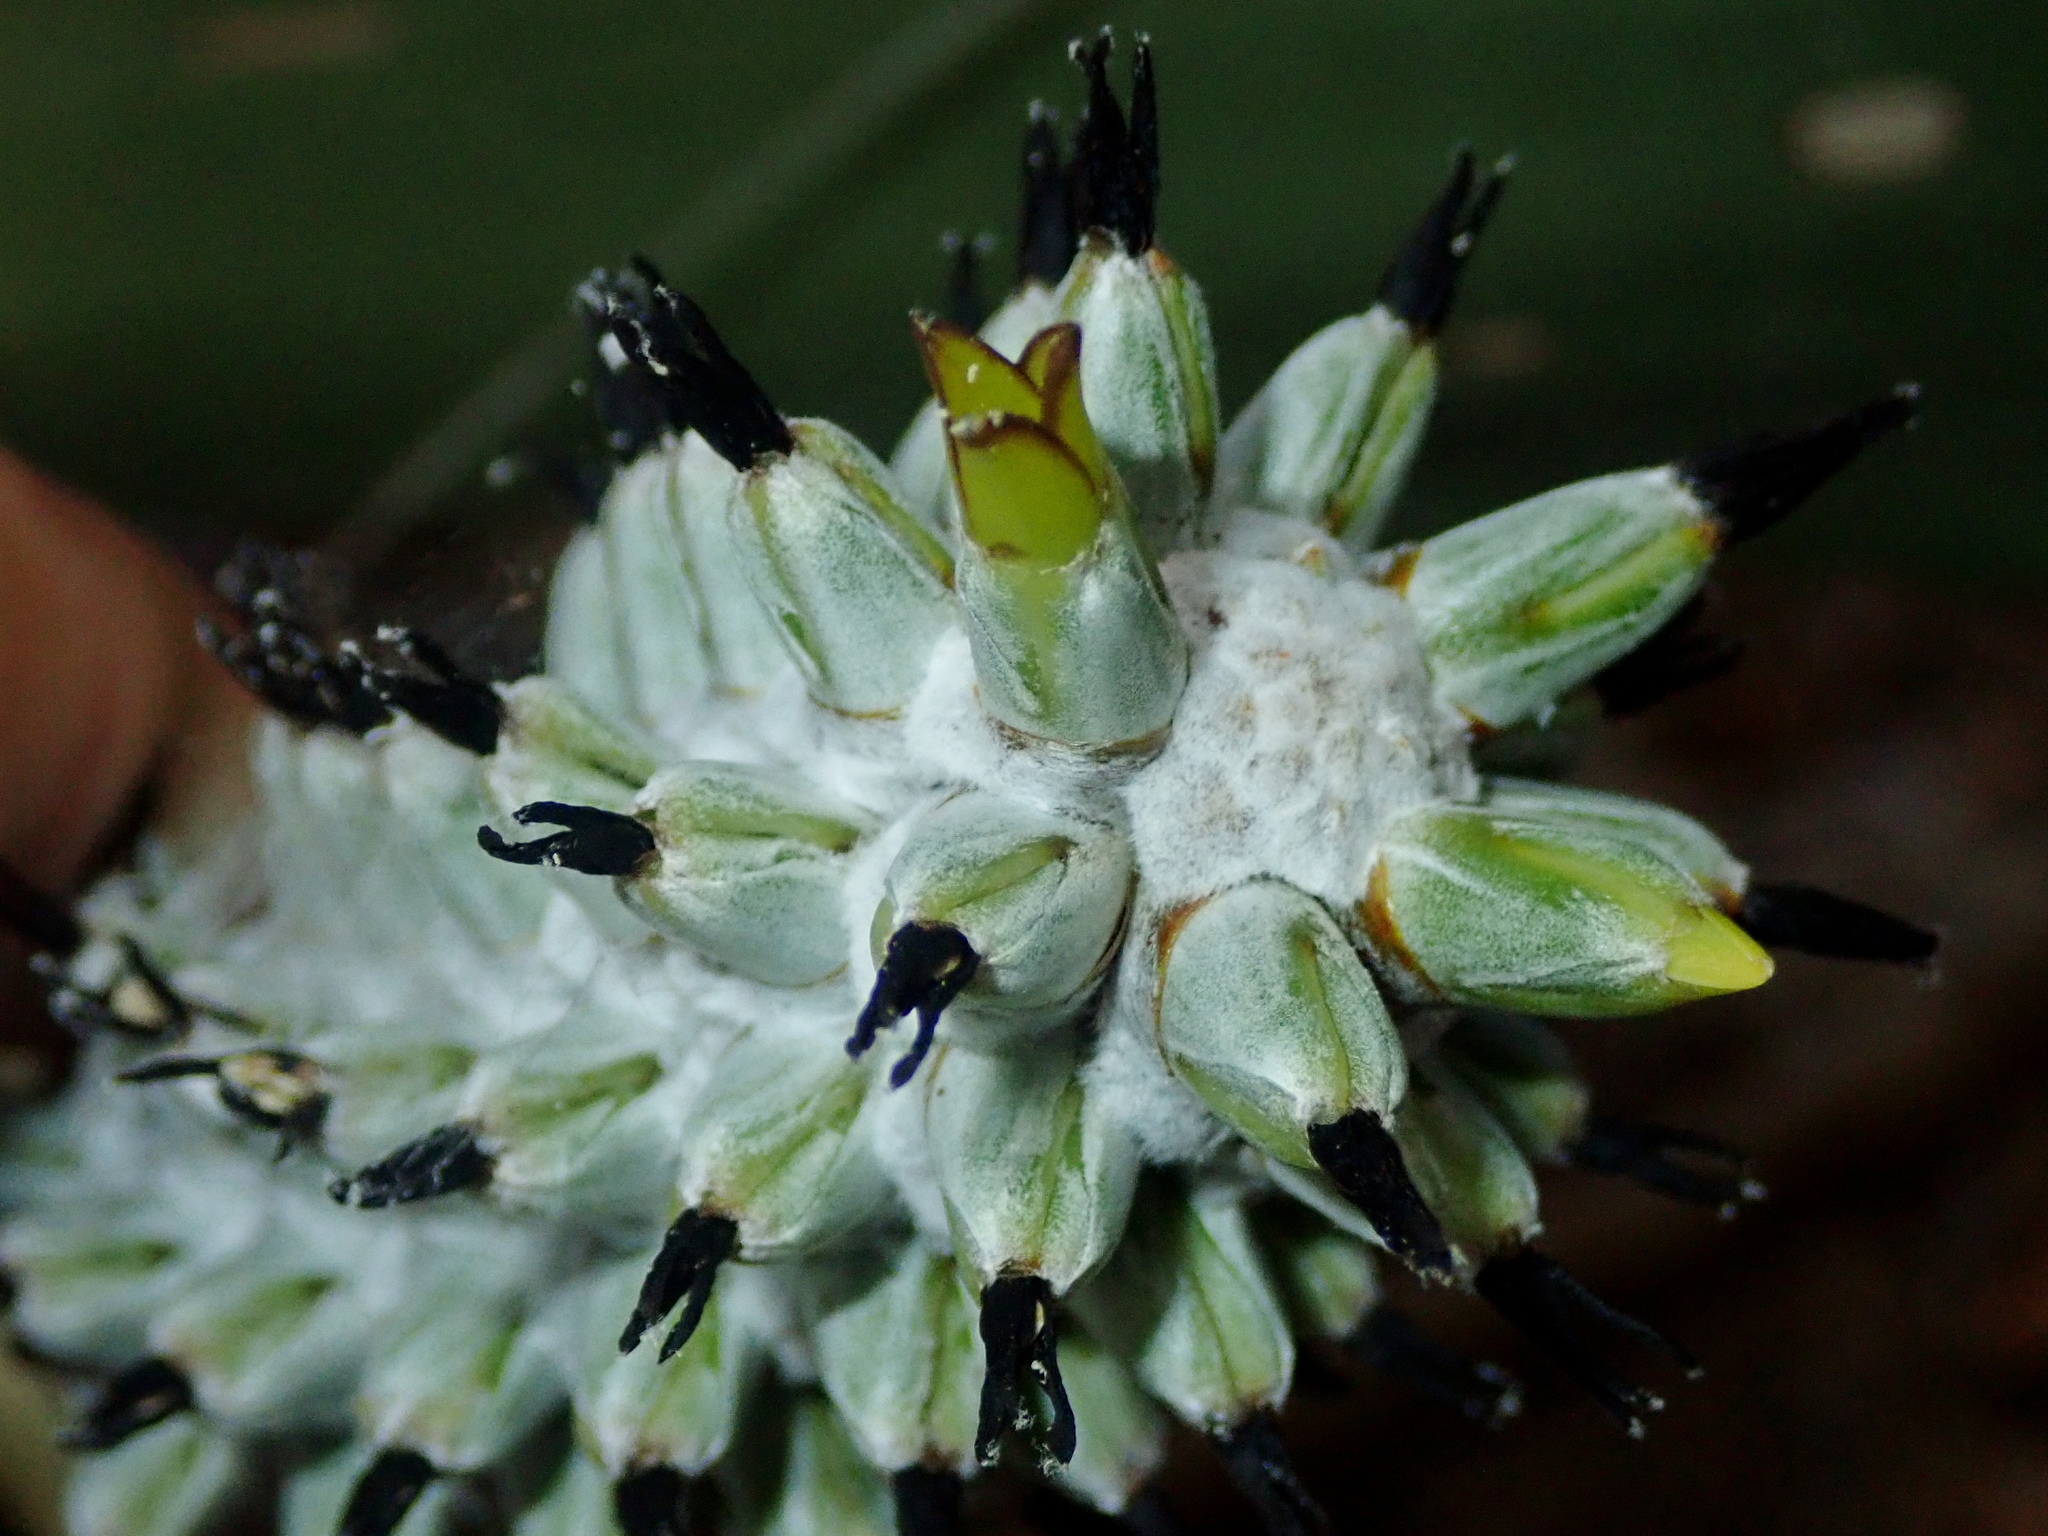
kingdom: Plantae
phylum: Tracheophyta
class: Liliopsida
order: Poales
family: Bromeliaceae
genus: Aechmea
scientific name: Aechmea bromeliifolia
